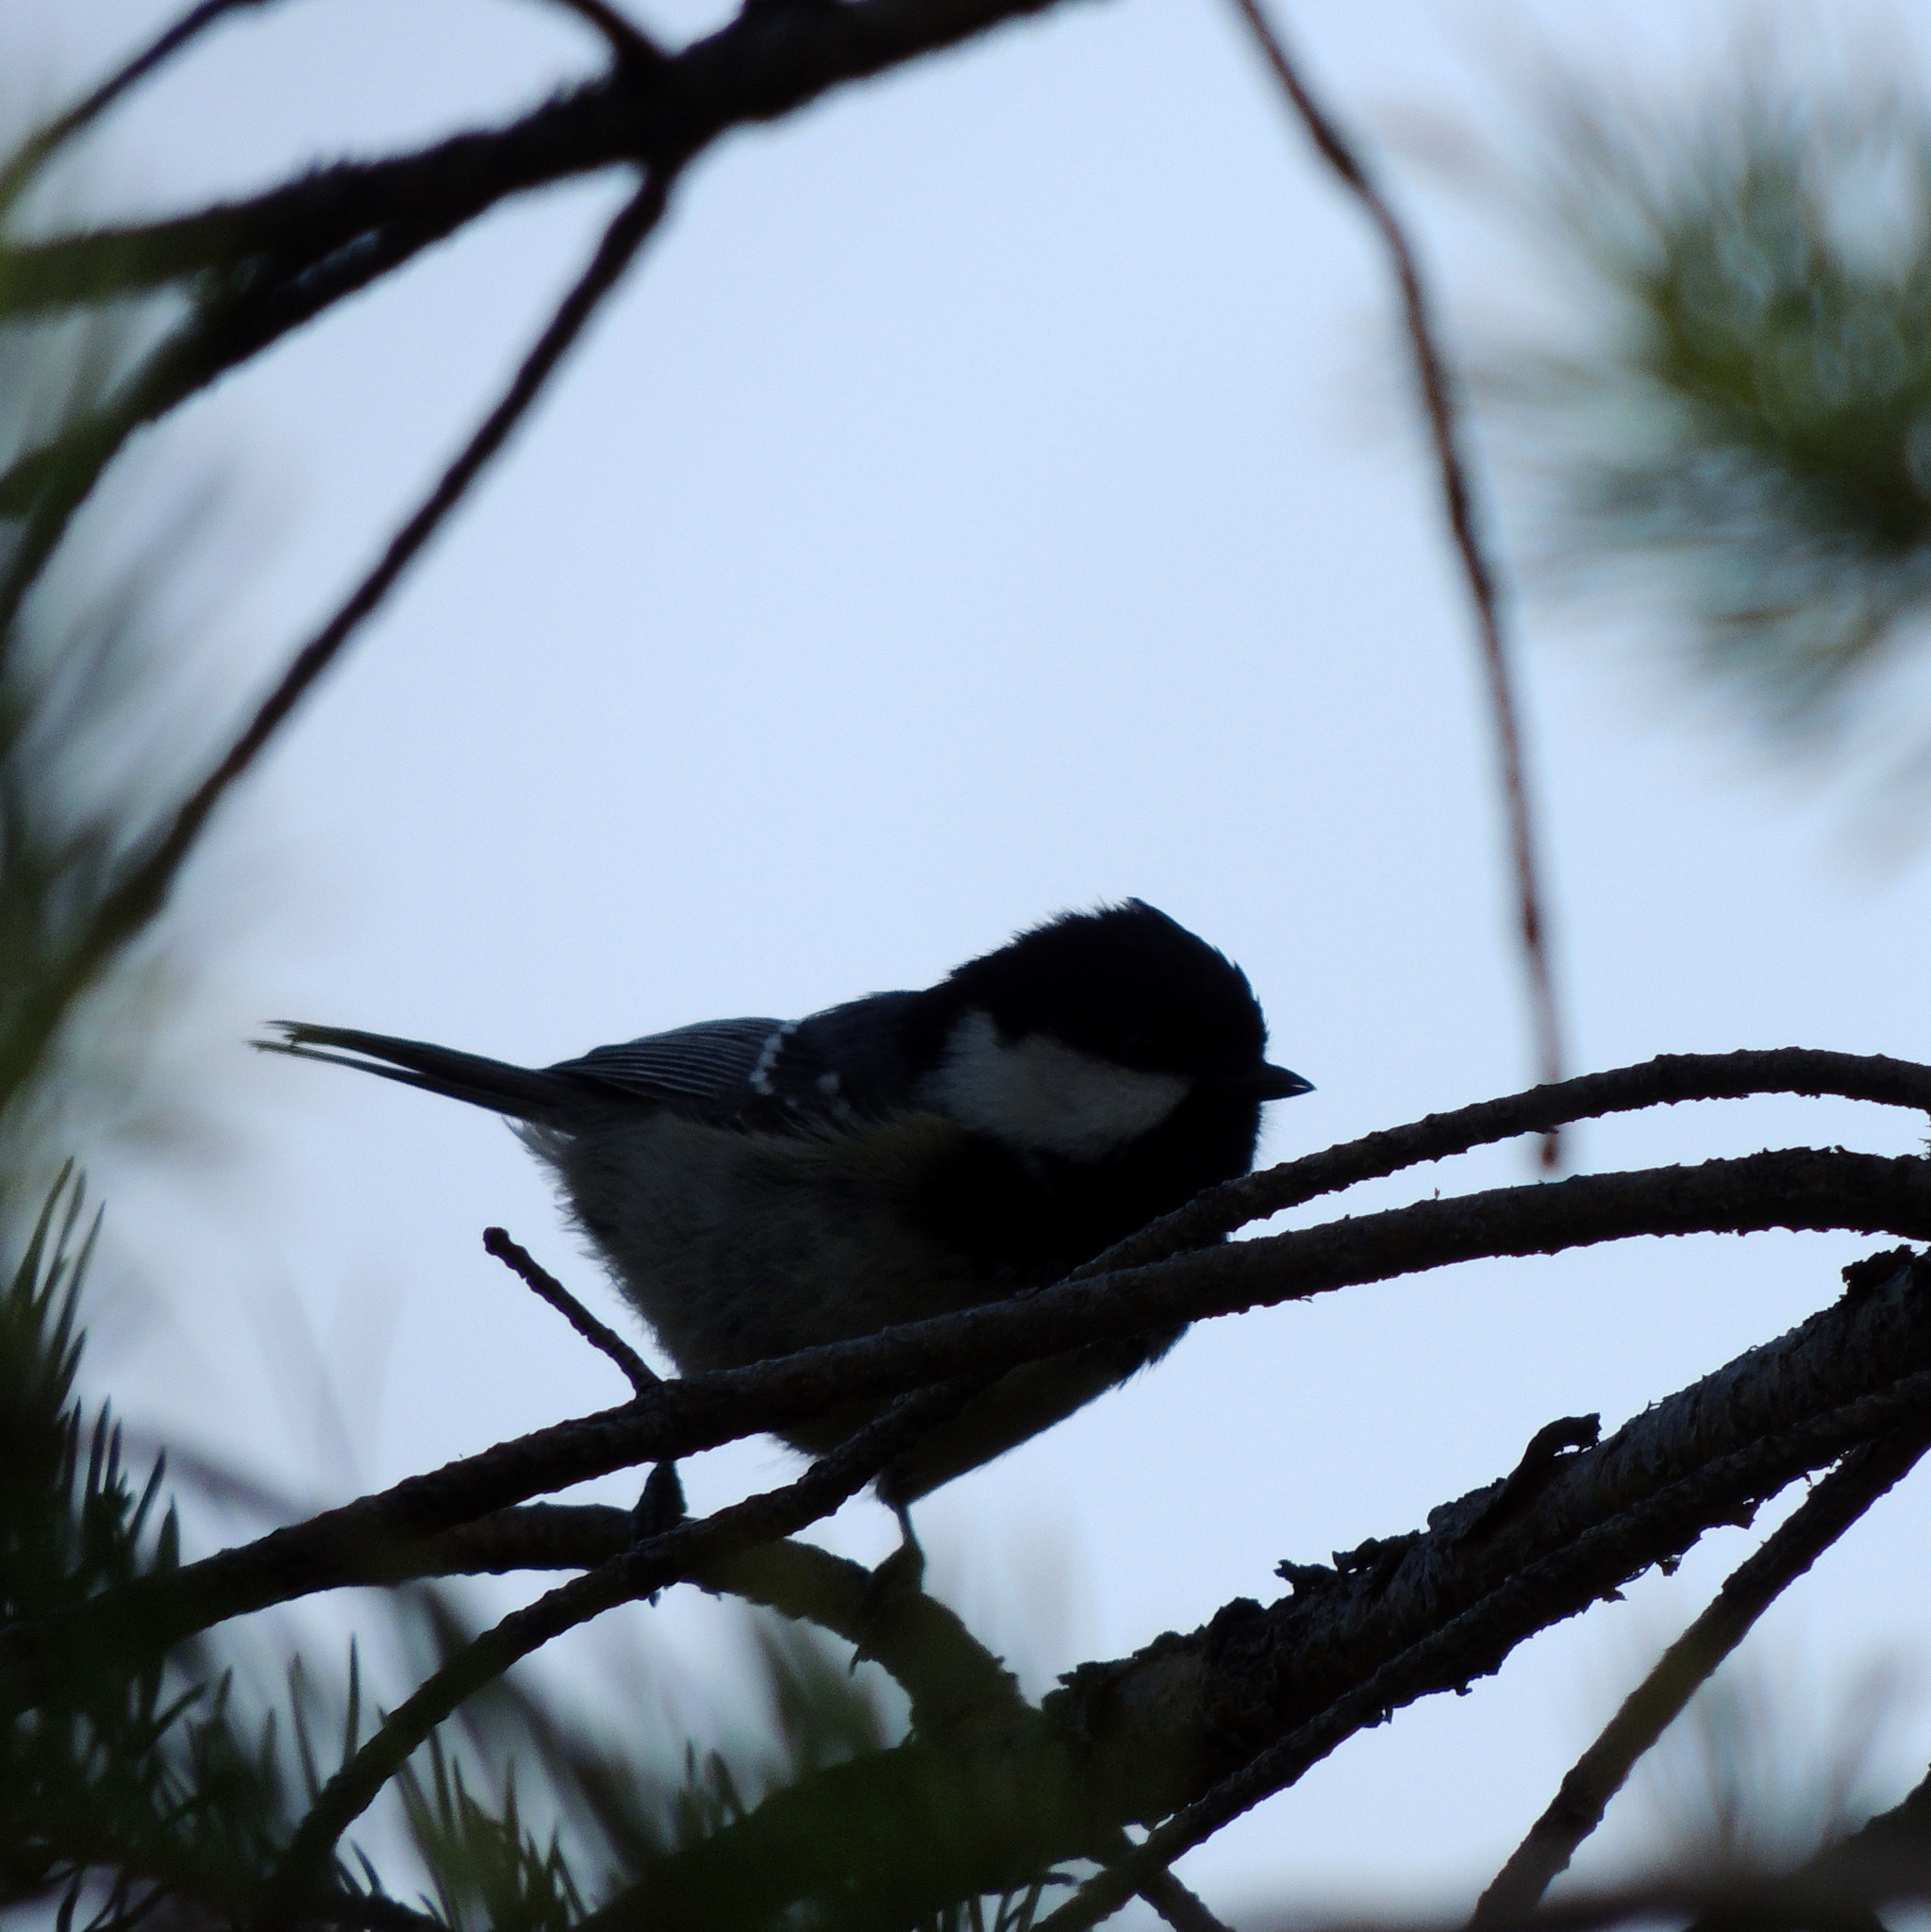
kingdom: Animalia
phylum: Chordata
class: Aves
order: Passeriformes
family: Paridae
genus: Periparus
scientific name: Periparus ater
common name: Coal tit
